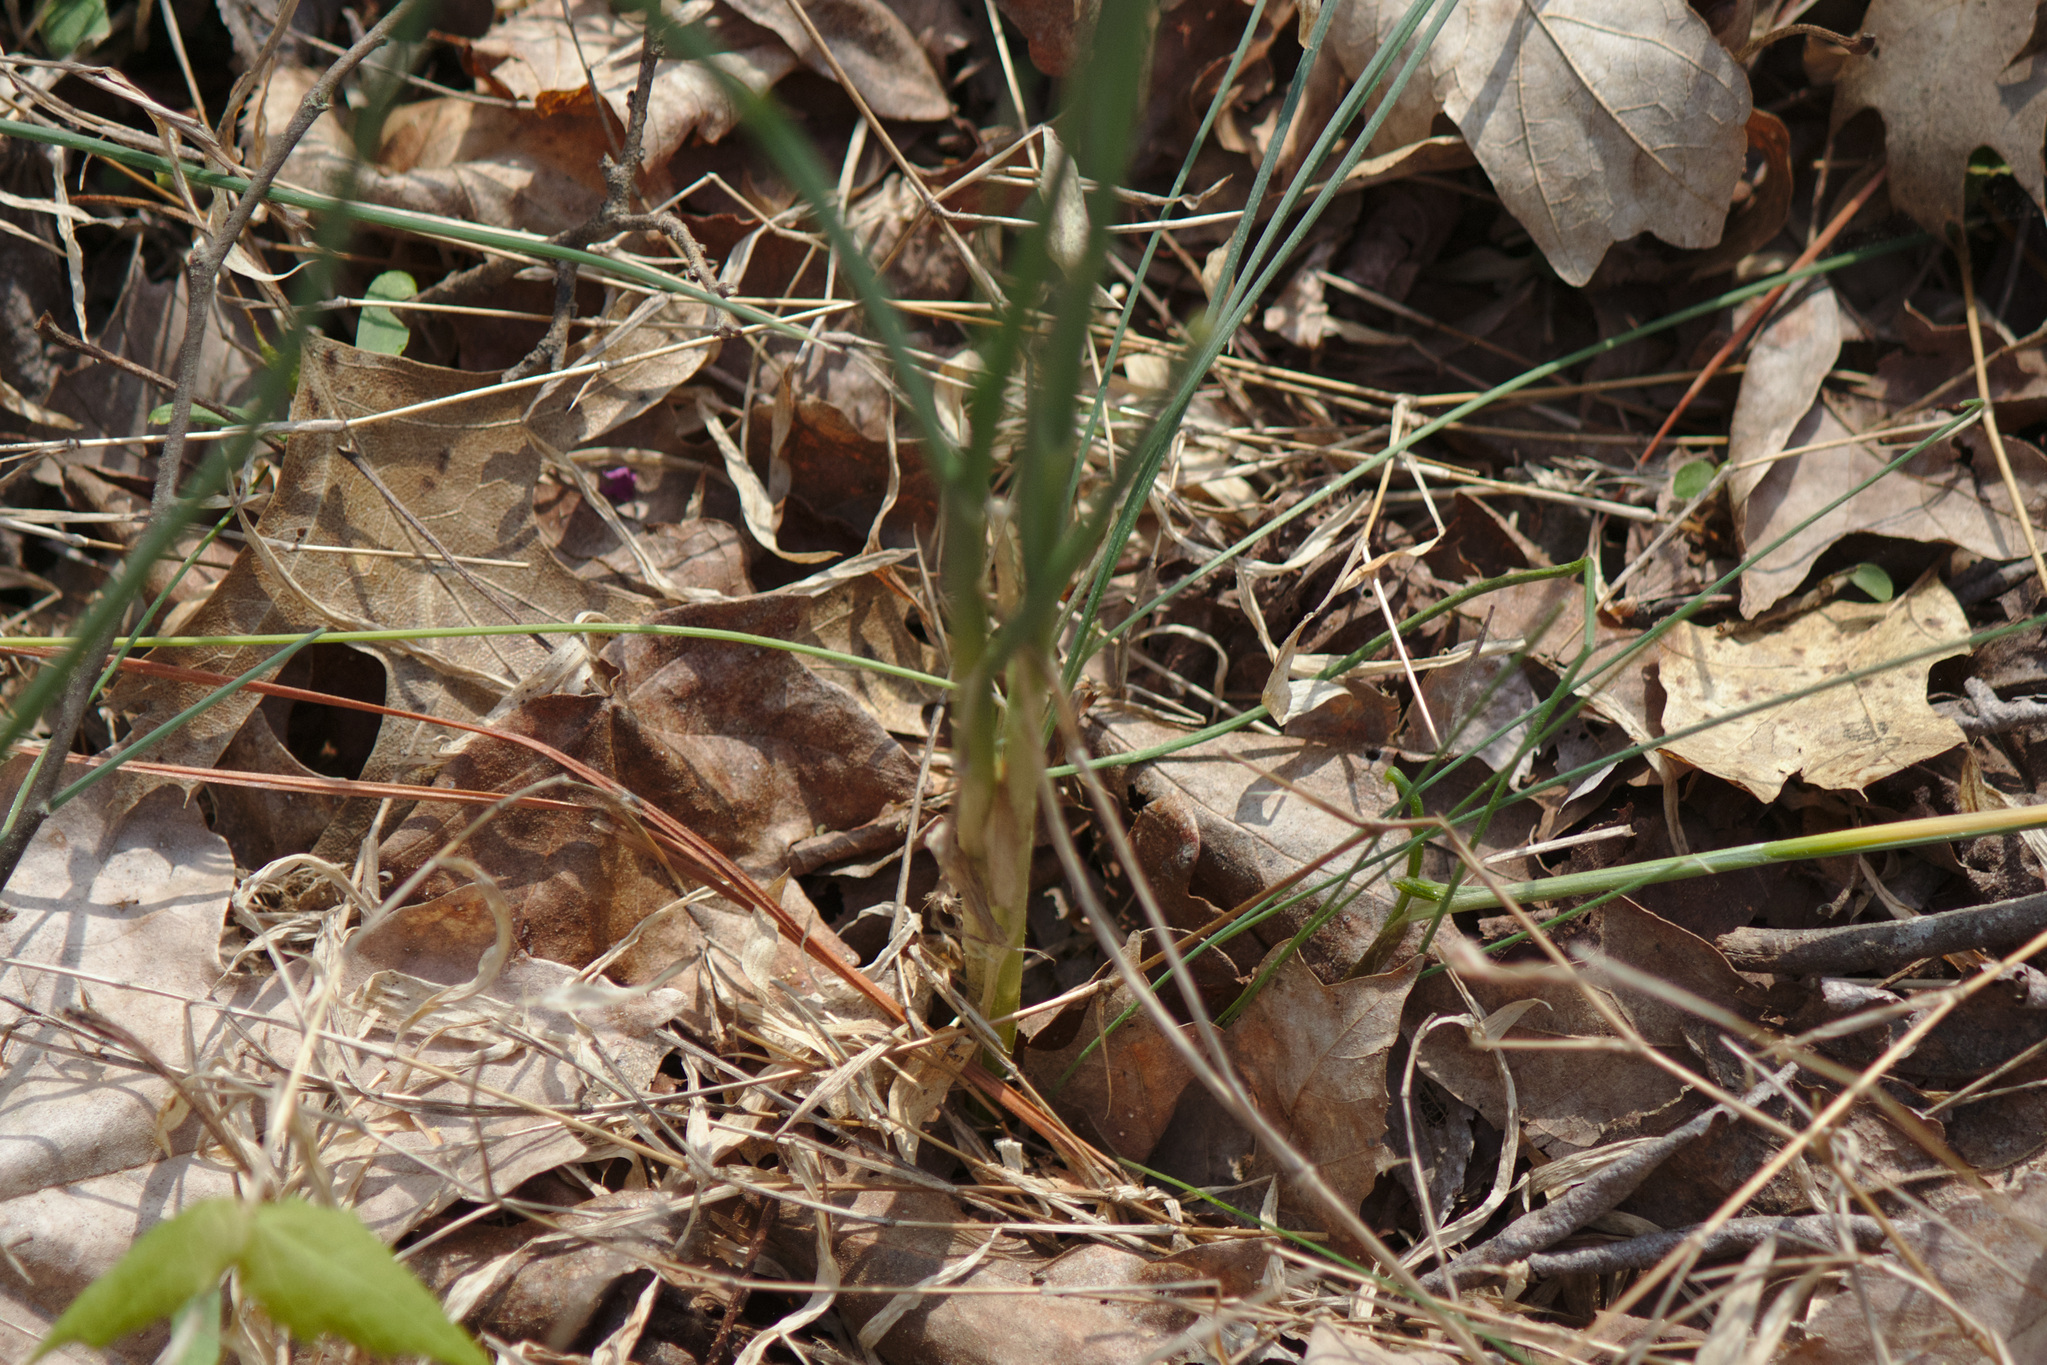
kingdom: Plantae
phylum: Tracheophyta
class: Liliopsida
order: Asparagales
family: Amaryllidaceae
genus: Allium
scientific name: Allium vineale
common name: Crow garlic
